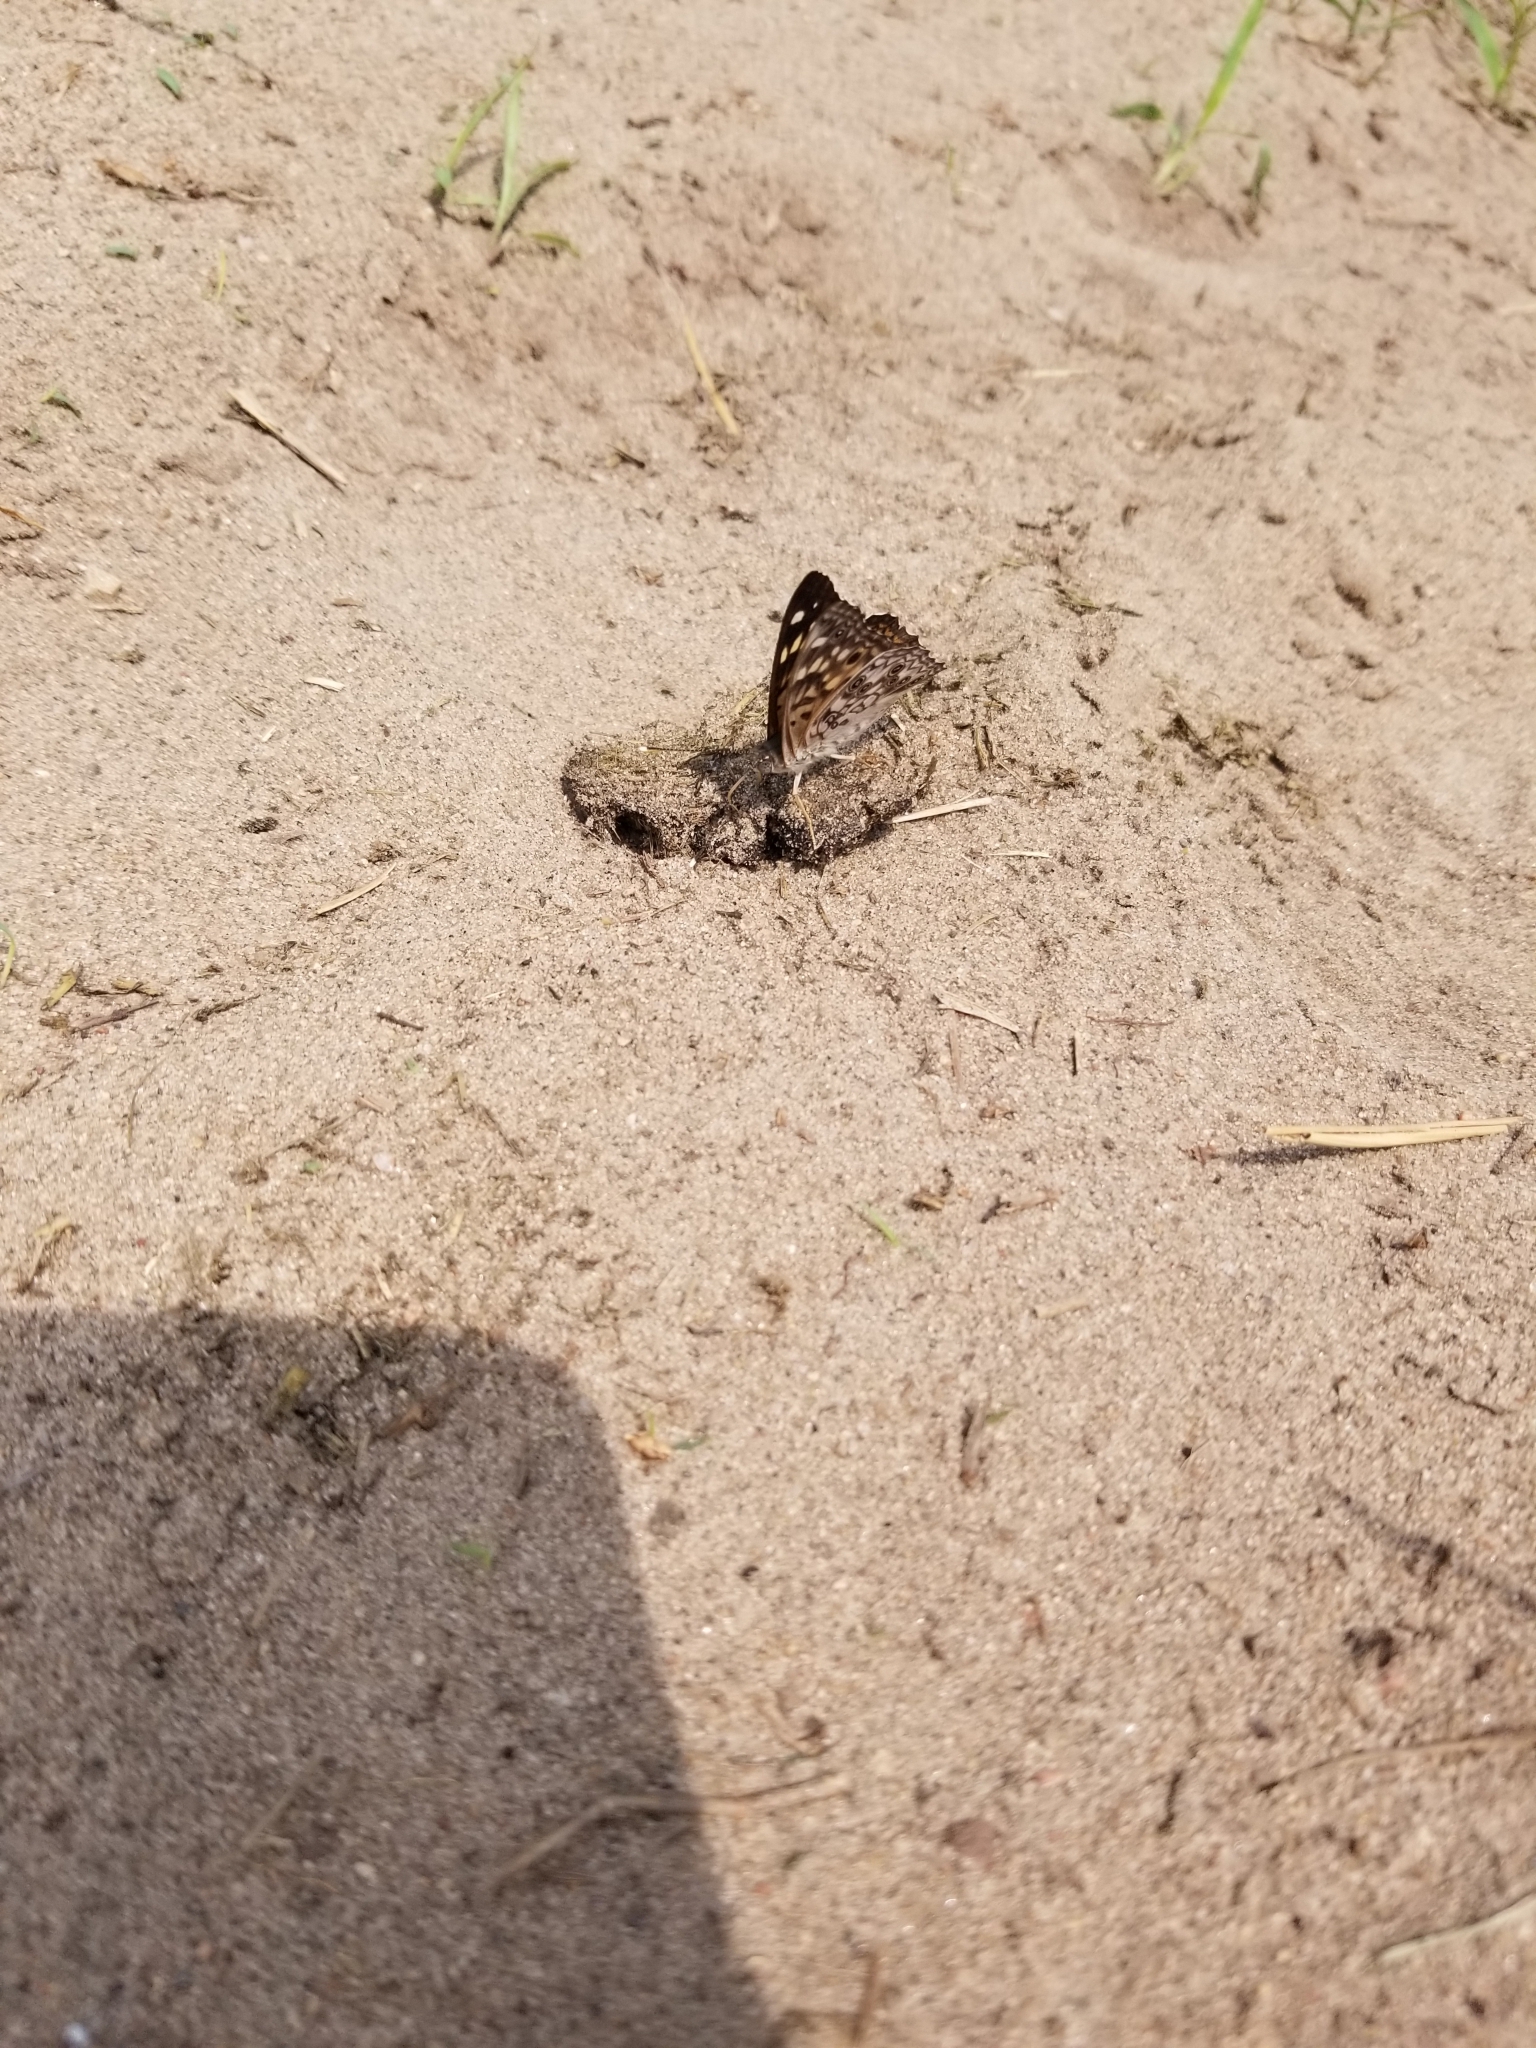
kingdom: Animalia
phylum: Arthropoda
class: Insecta
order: Lepidoptera
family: Nymphalidae
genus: Asterocampa
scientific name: Asterocampa celtis
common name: Hackberry emperor
